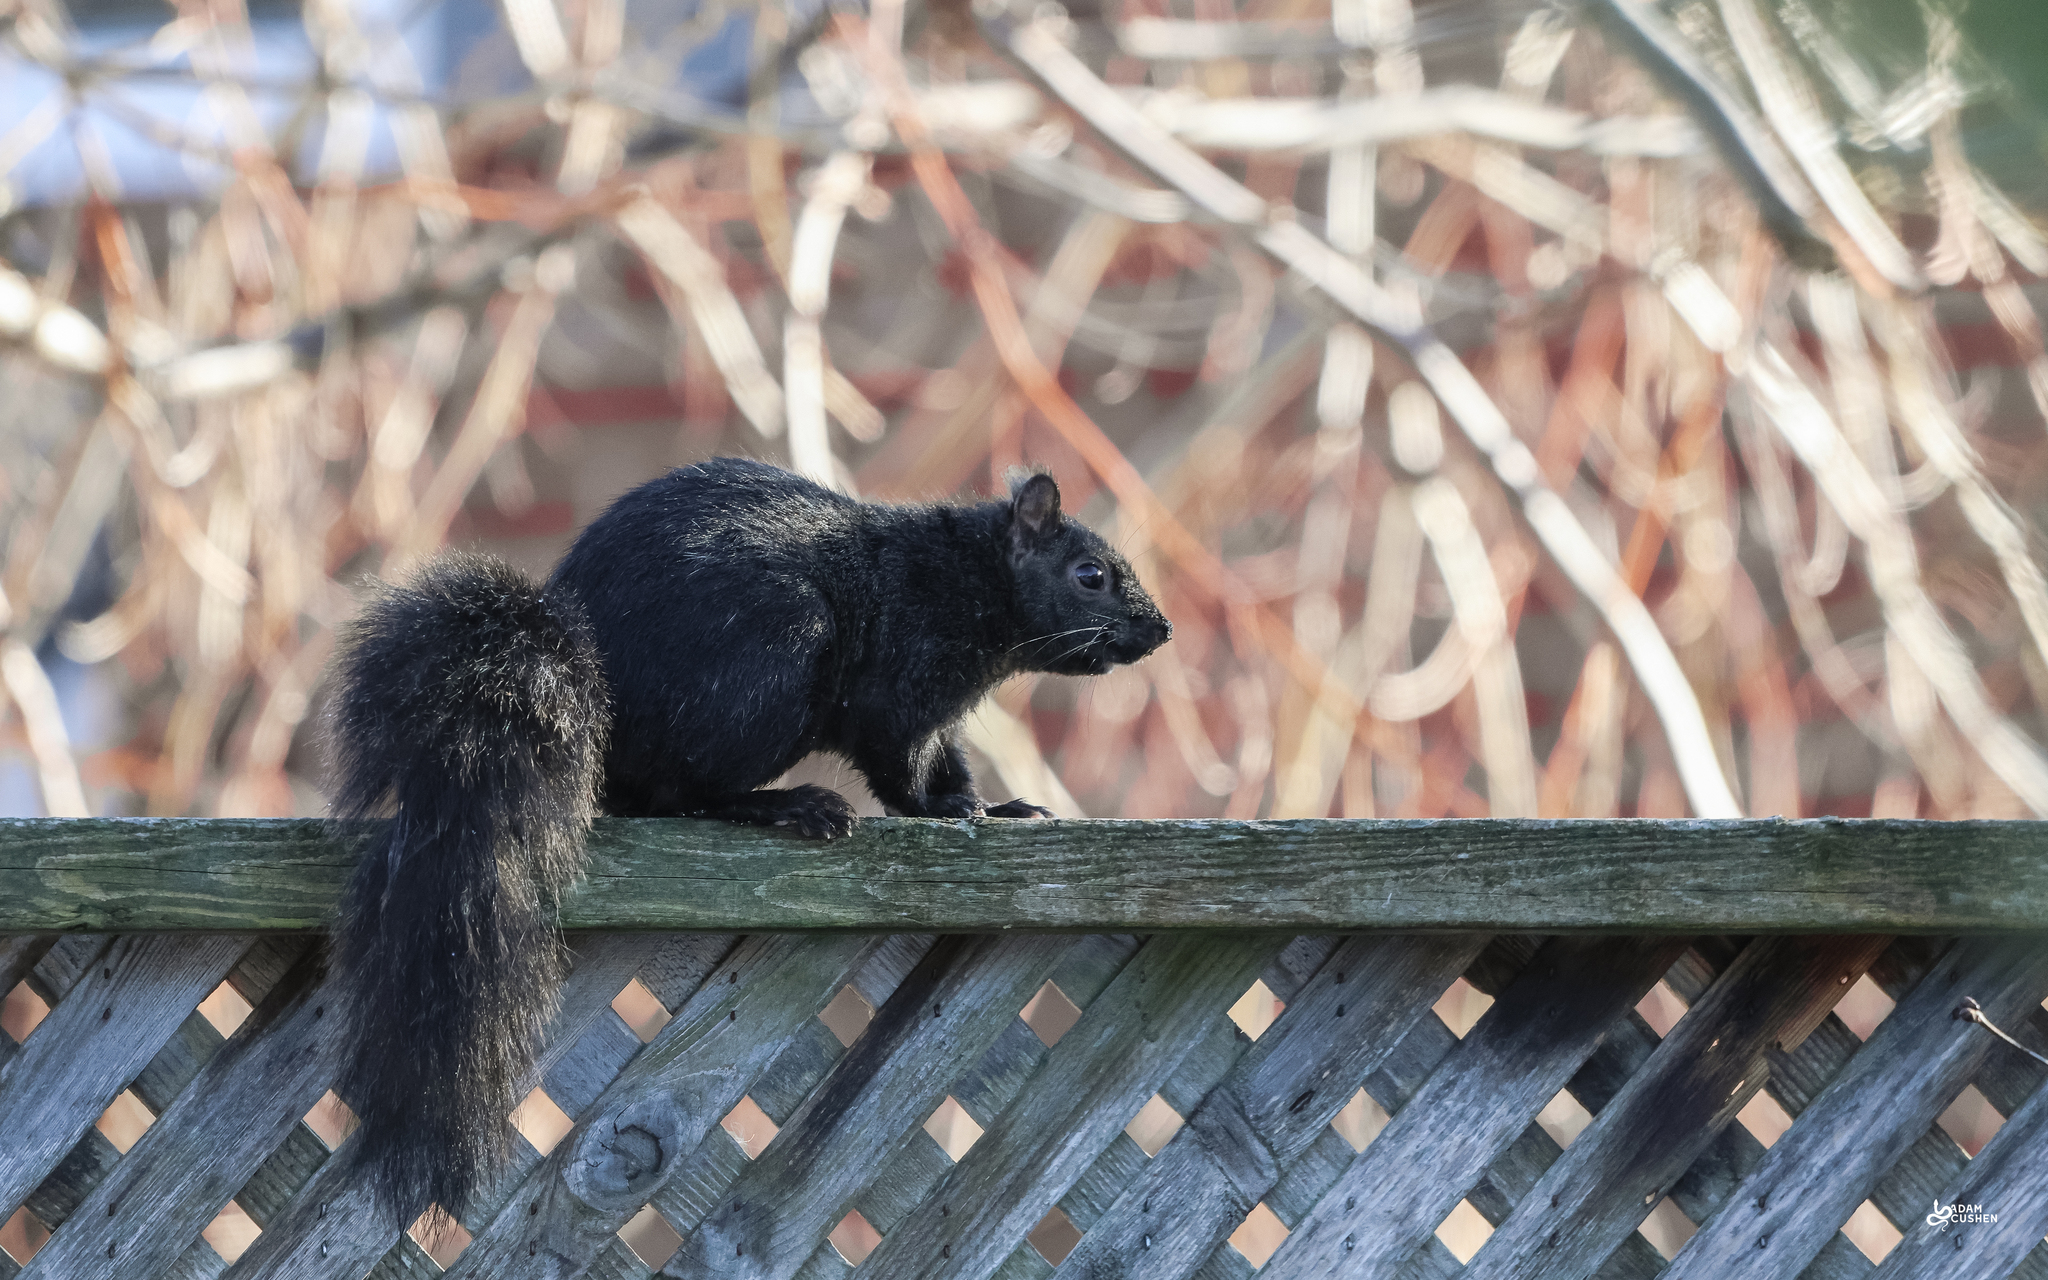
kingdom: Animalia
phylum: Chordata
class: Mammalia
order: Rodentia
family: Sciuridae
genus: Sciurus
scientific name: Sciurus carolinensis
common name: Eastern gray squirrel
